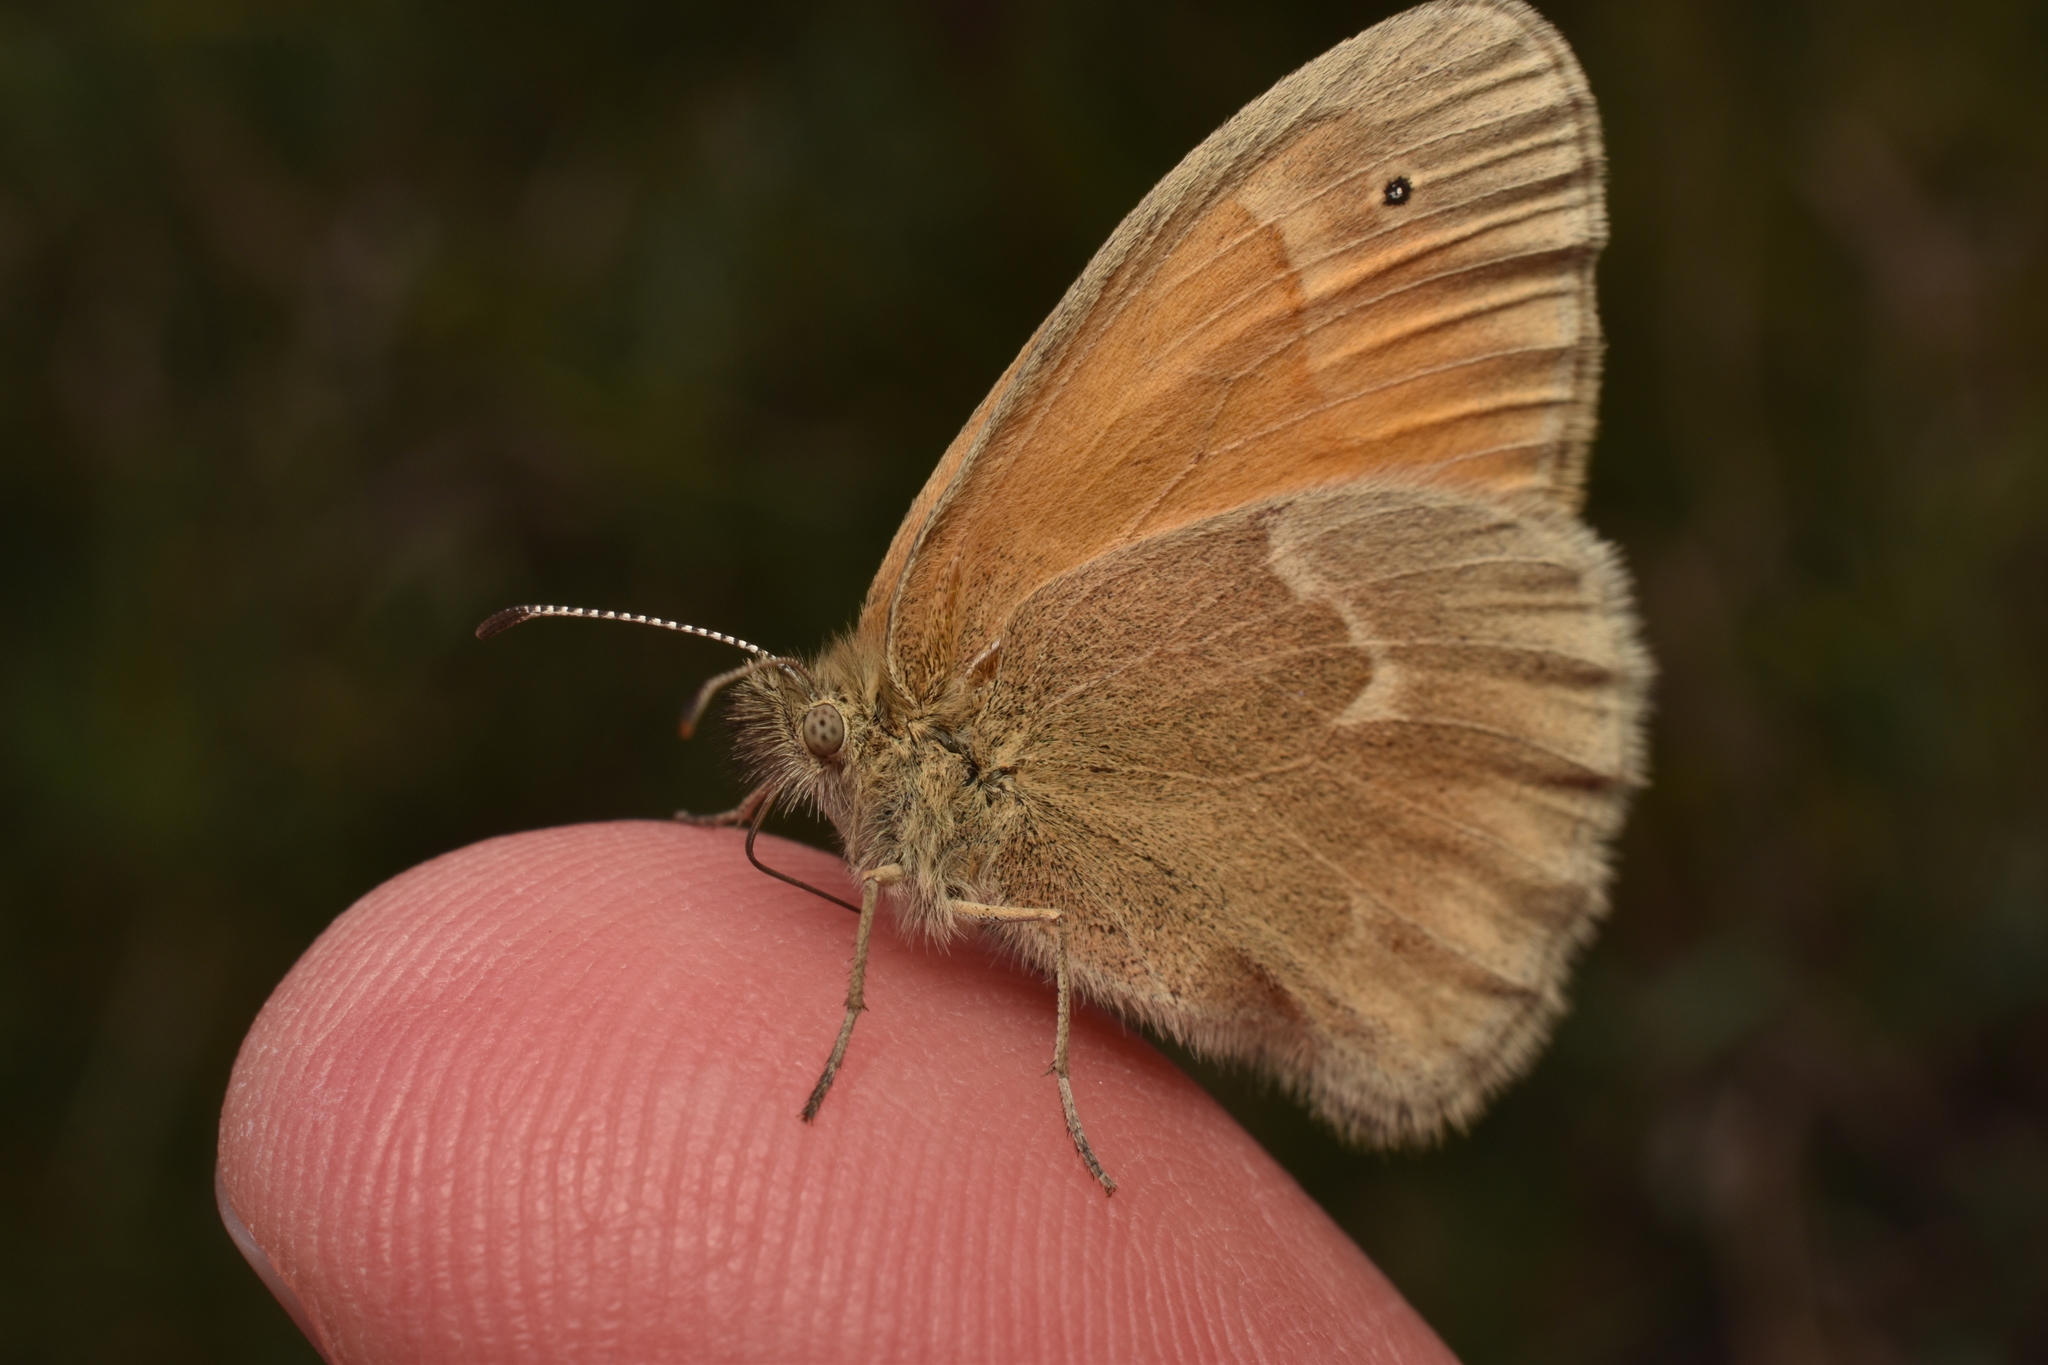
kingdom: Animalia
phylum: Arthropoda
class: Insecta
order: Lepidoptera
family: Nymphalidae
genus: Coenonympha
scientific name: Coenonympha california
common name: Common ringlet
